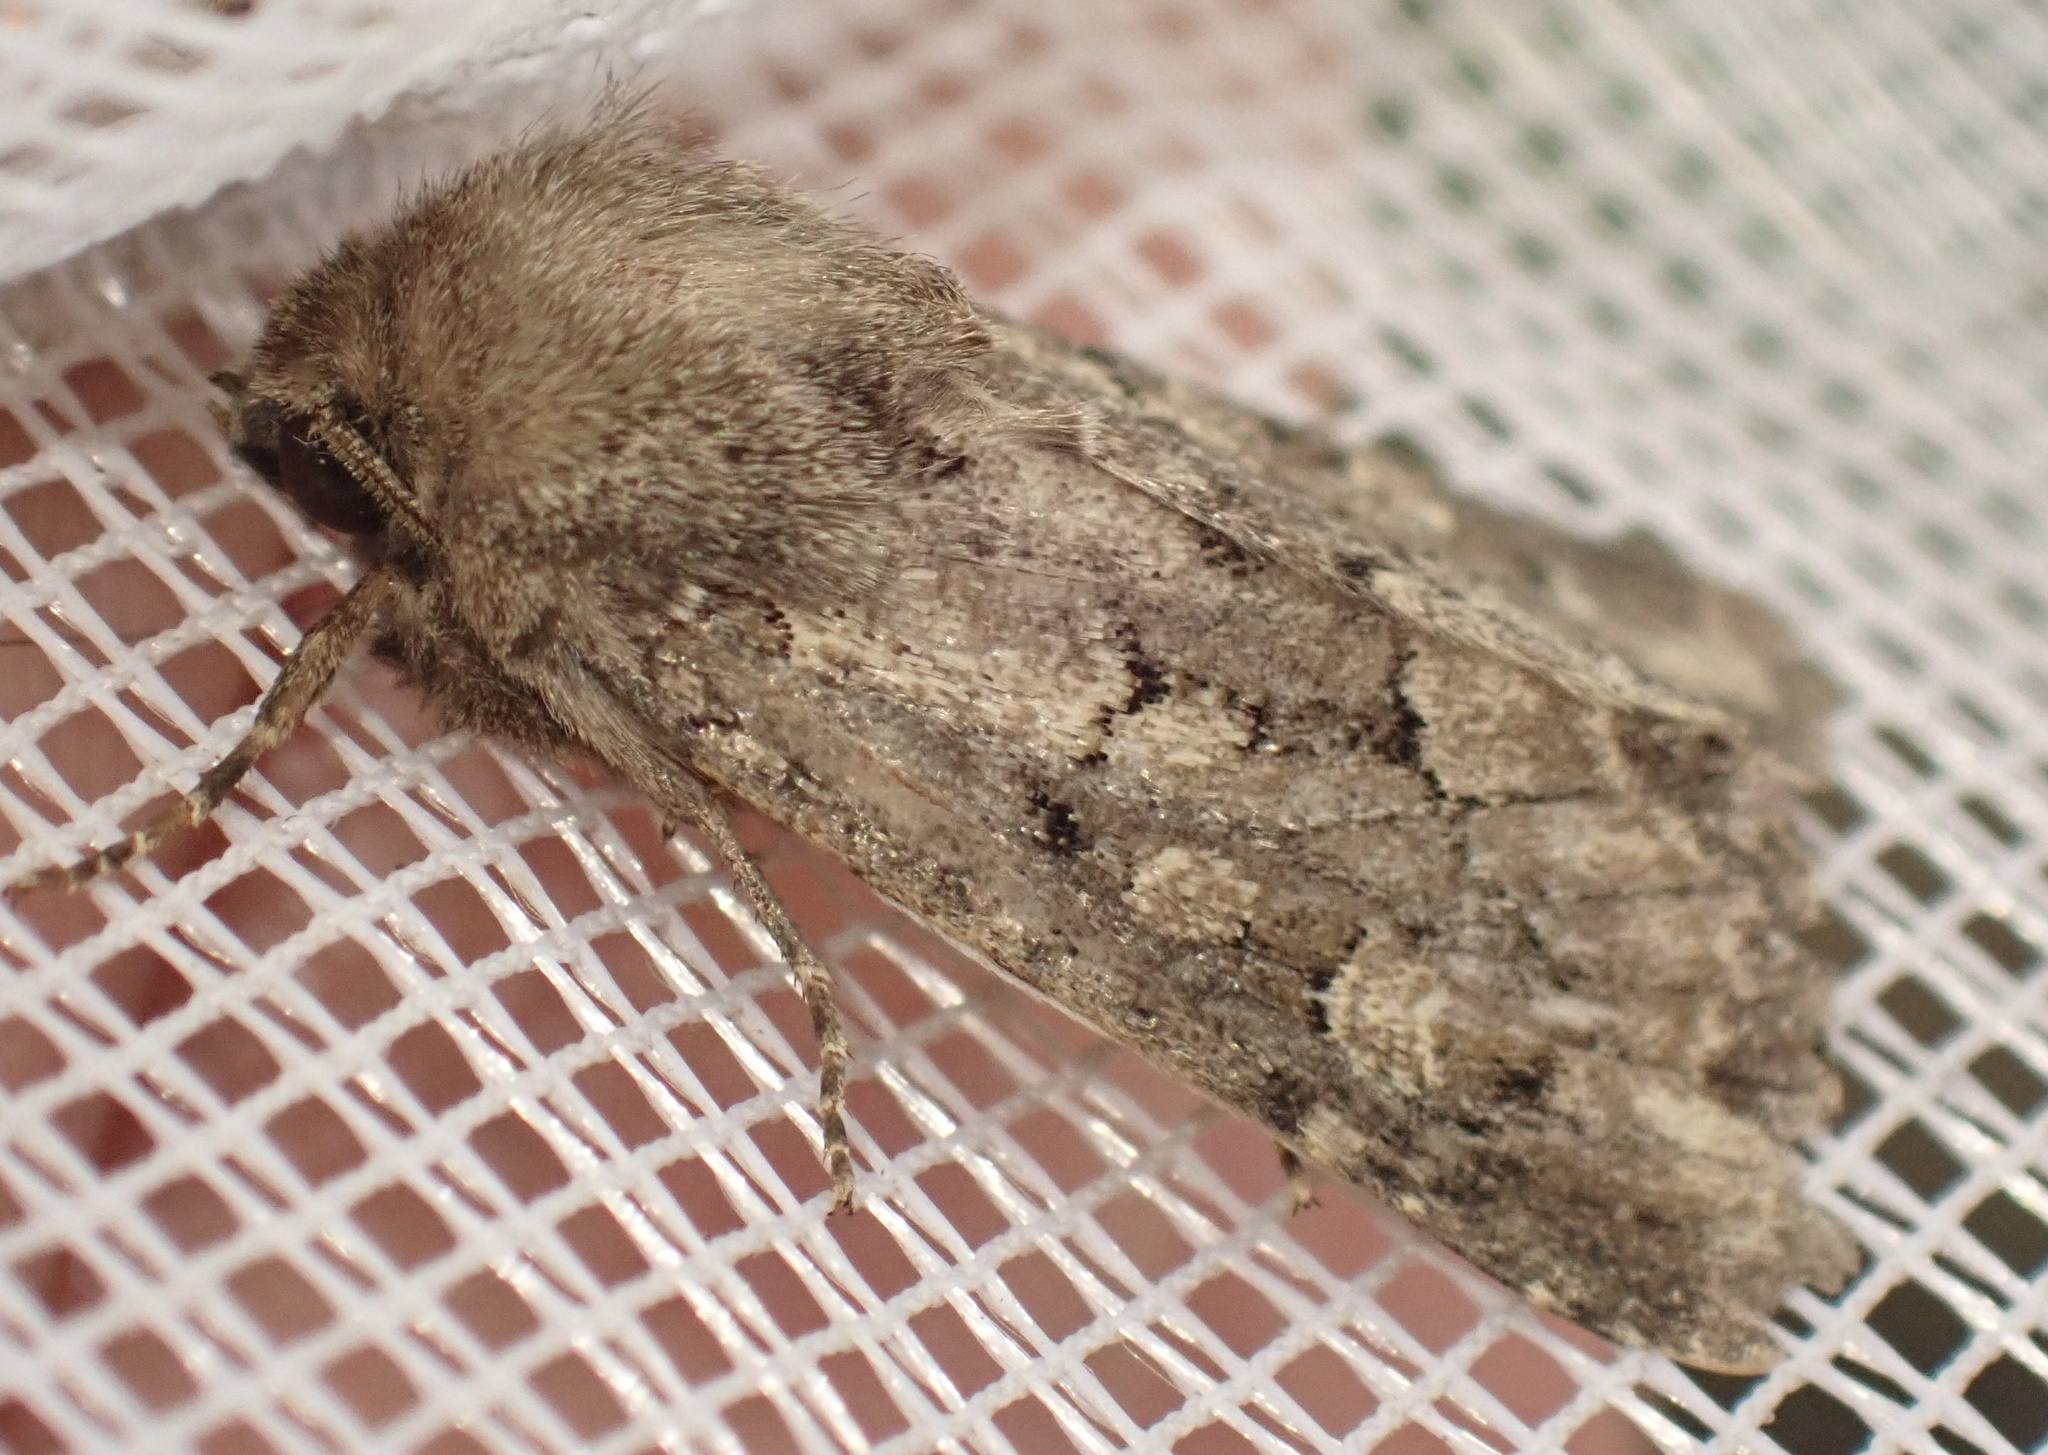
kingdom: Animalia
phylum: Arthropoda
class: Insecta
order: Lepidoptera
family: Noctuidae
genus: Luperina
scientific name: Luperina testacea
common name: Flounced rustic
